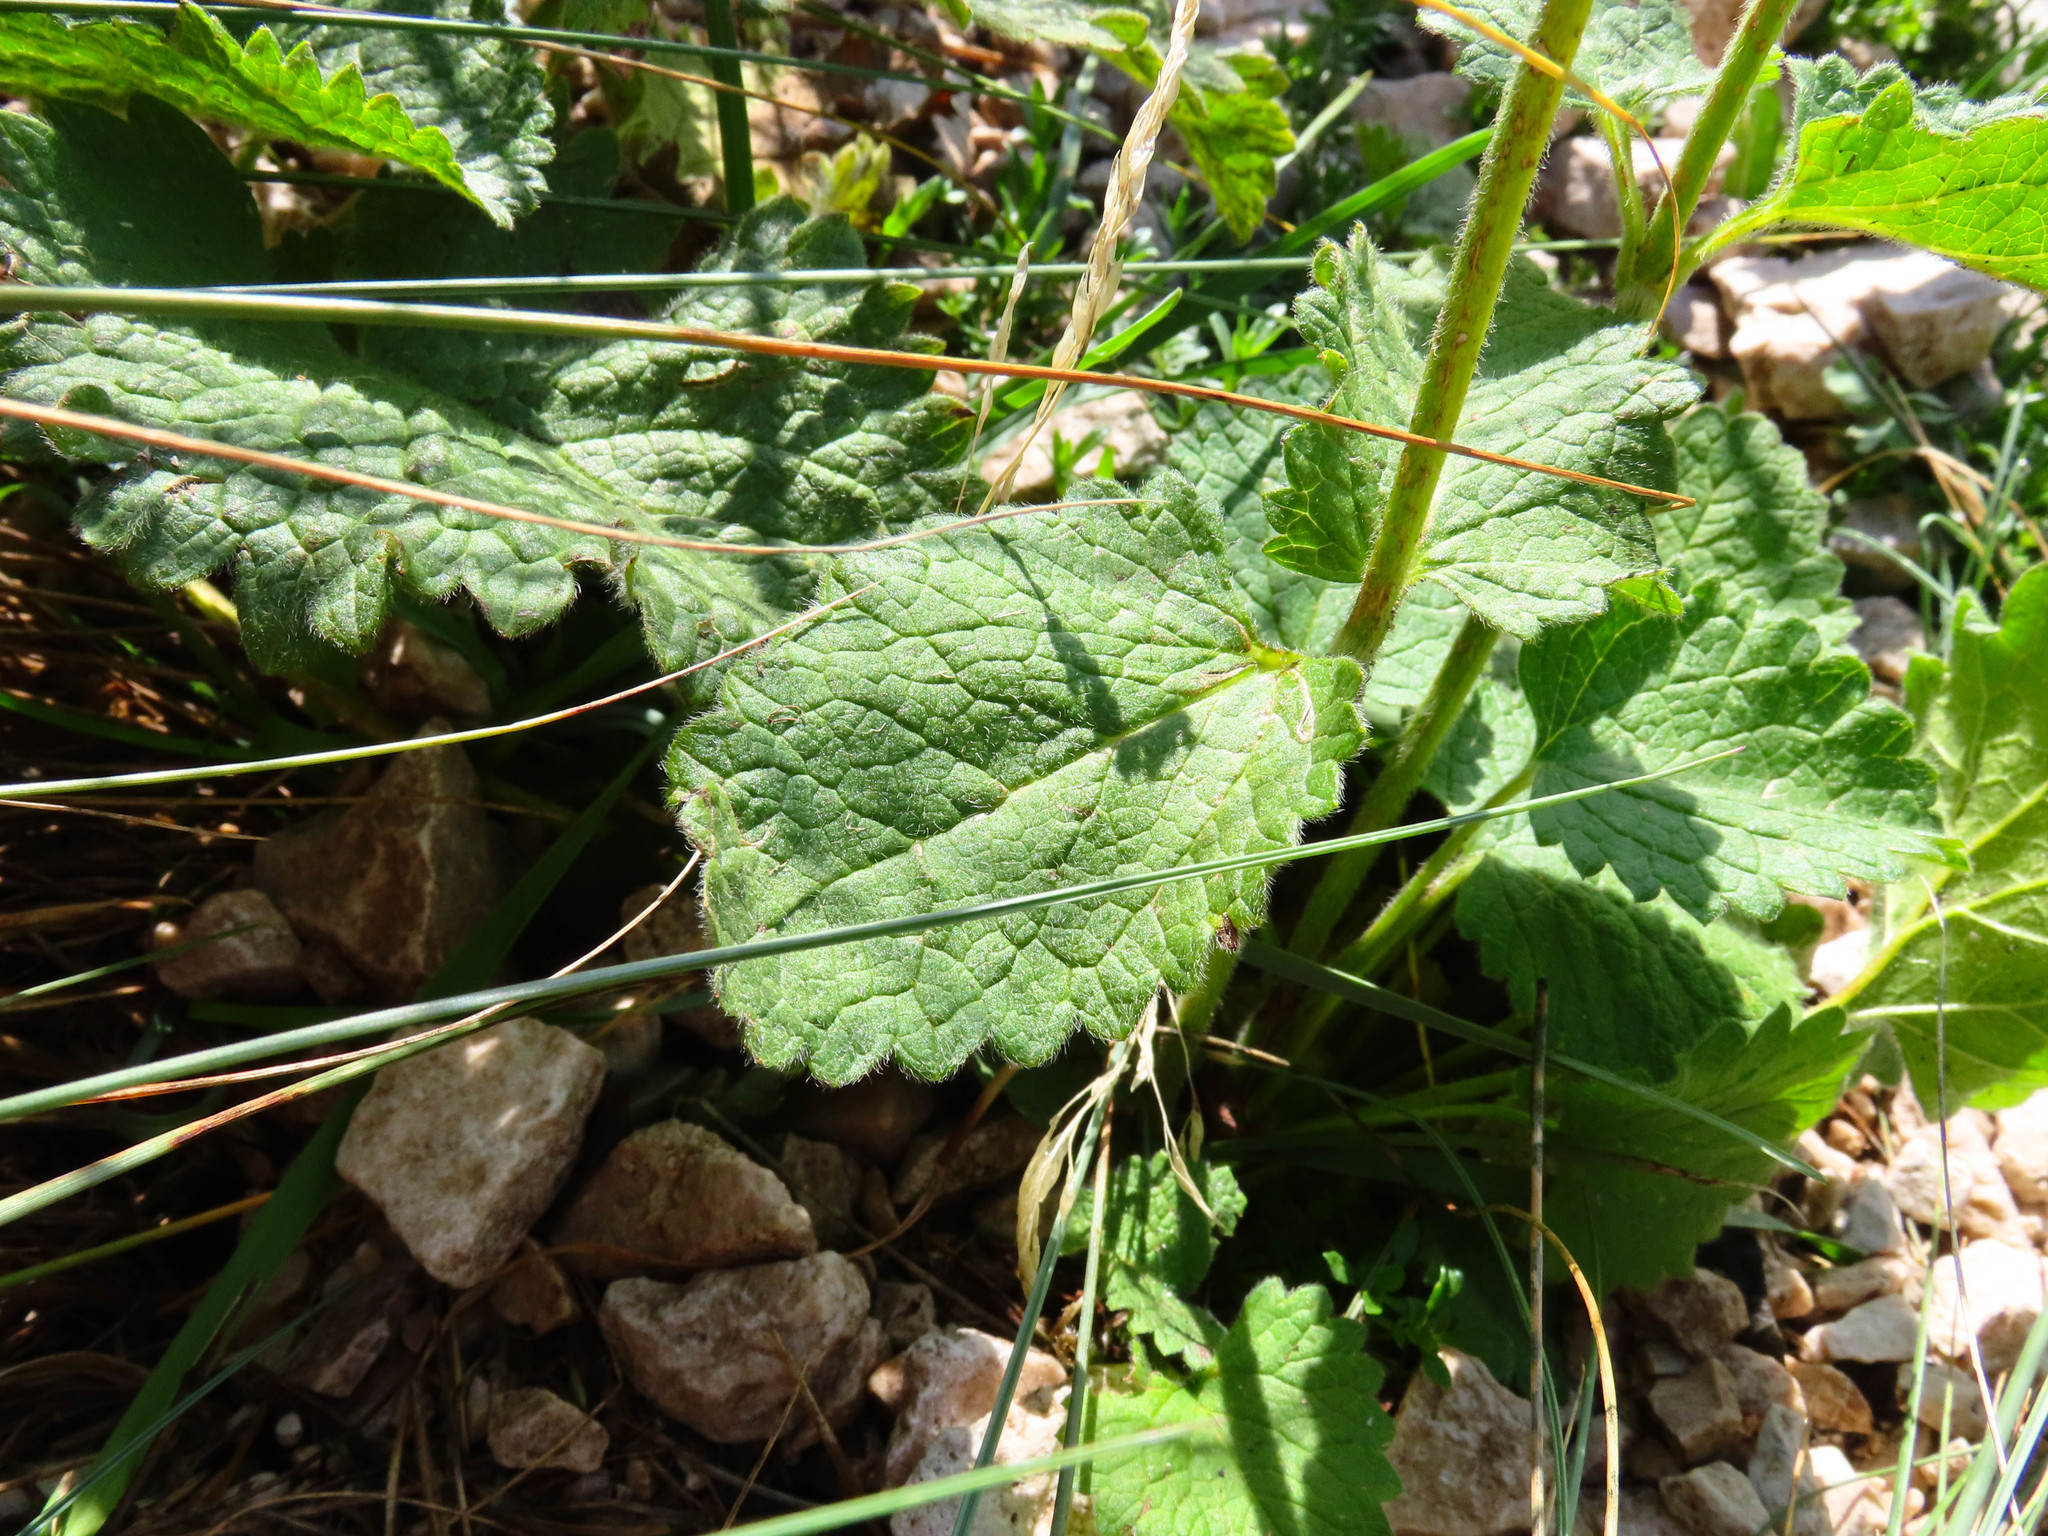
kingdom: Plantae
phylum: Tracheophyta
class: Magnoliopsida
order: Lamiales
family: Lamiaceae
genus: Betonica
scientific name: Betonica alopecuros
